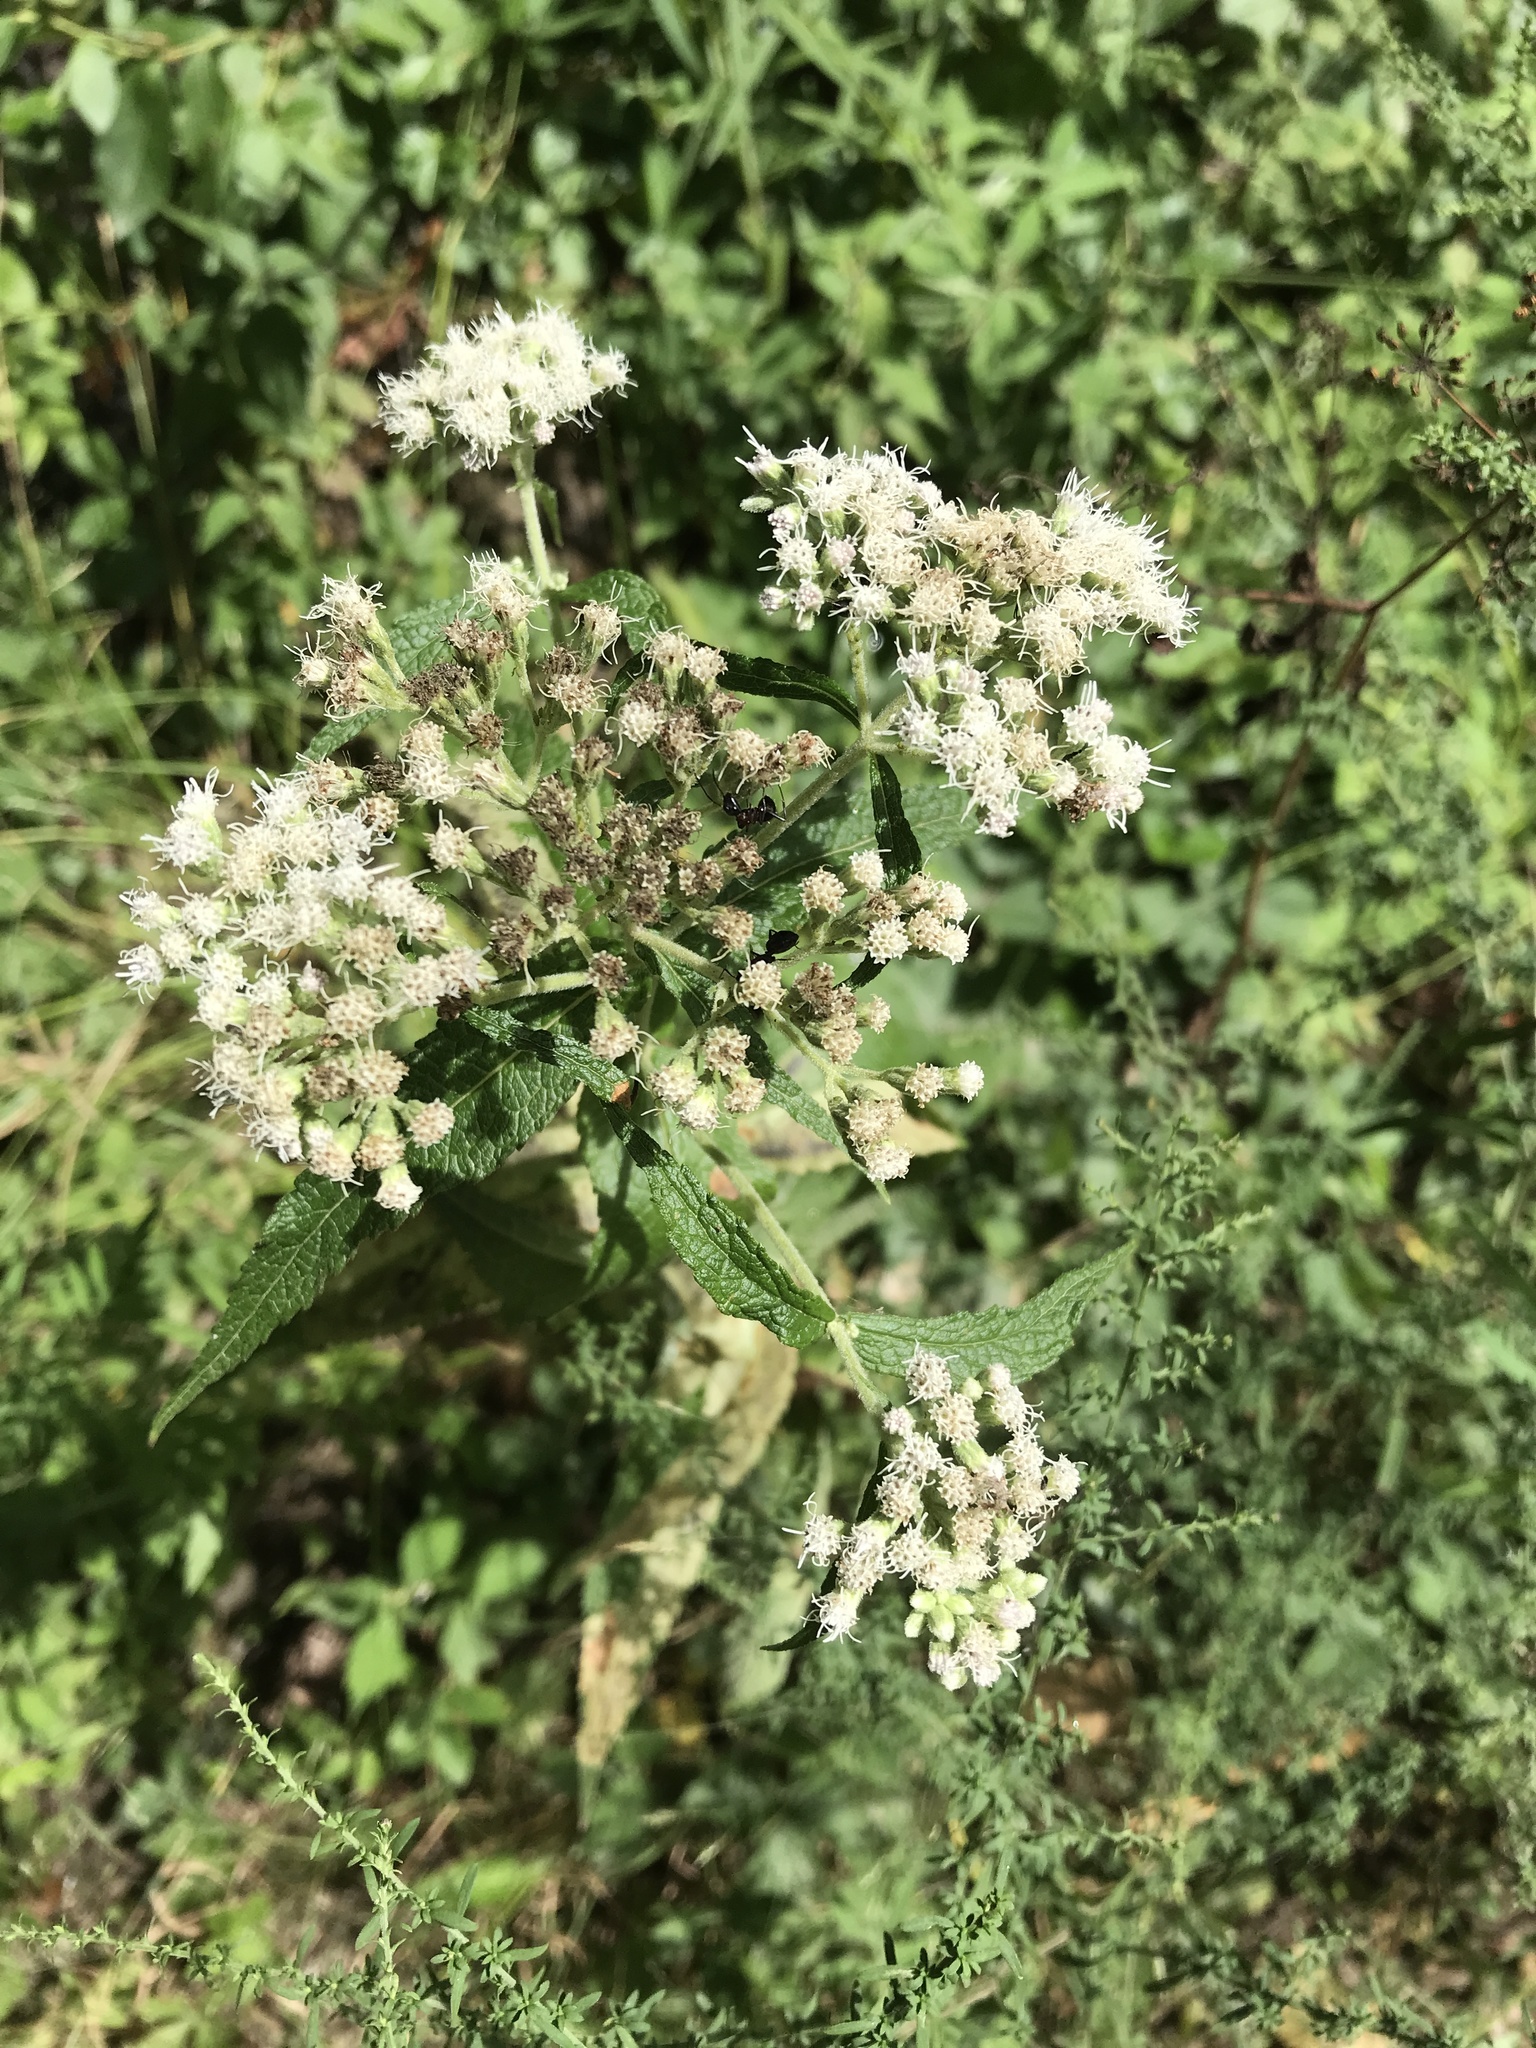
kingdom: Plantae
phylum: Tracheophyta
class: Magnoliopsida
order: Asterales
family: Asteraceae
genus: Eupatorium
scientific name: Eupatorium perfoliatum
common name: Boneset
